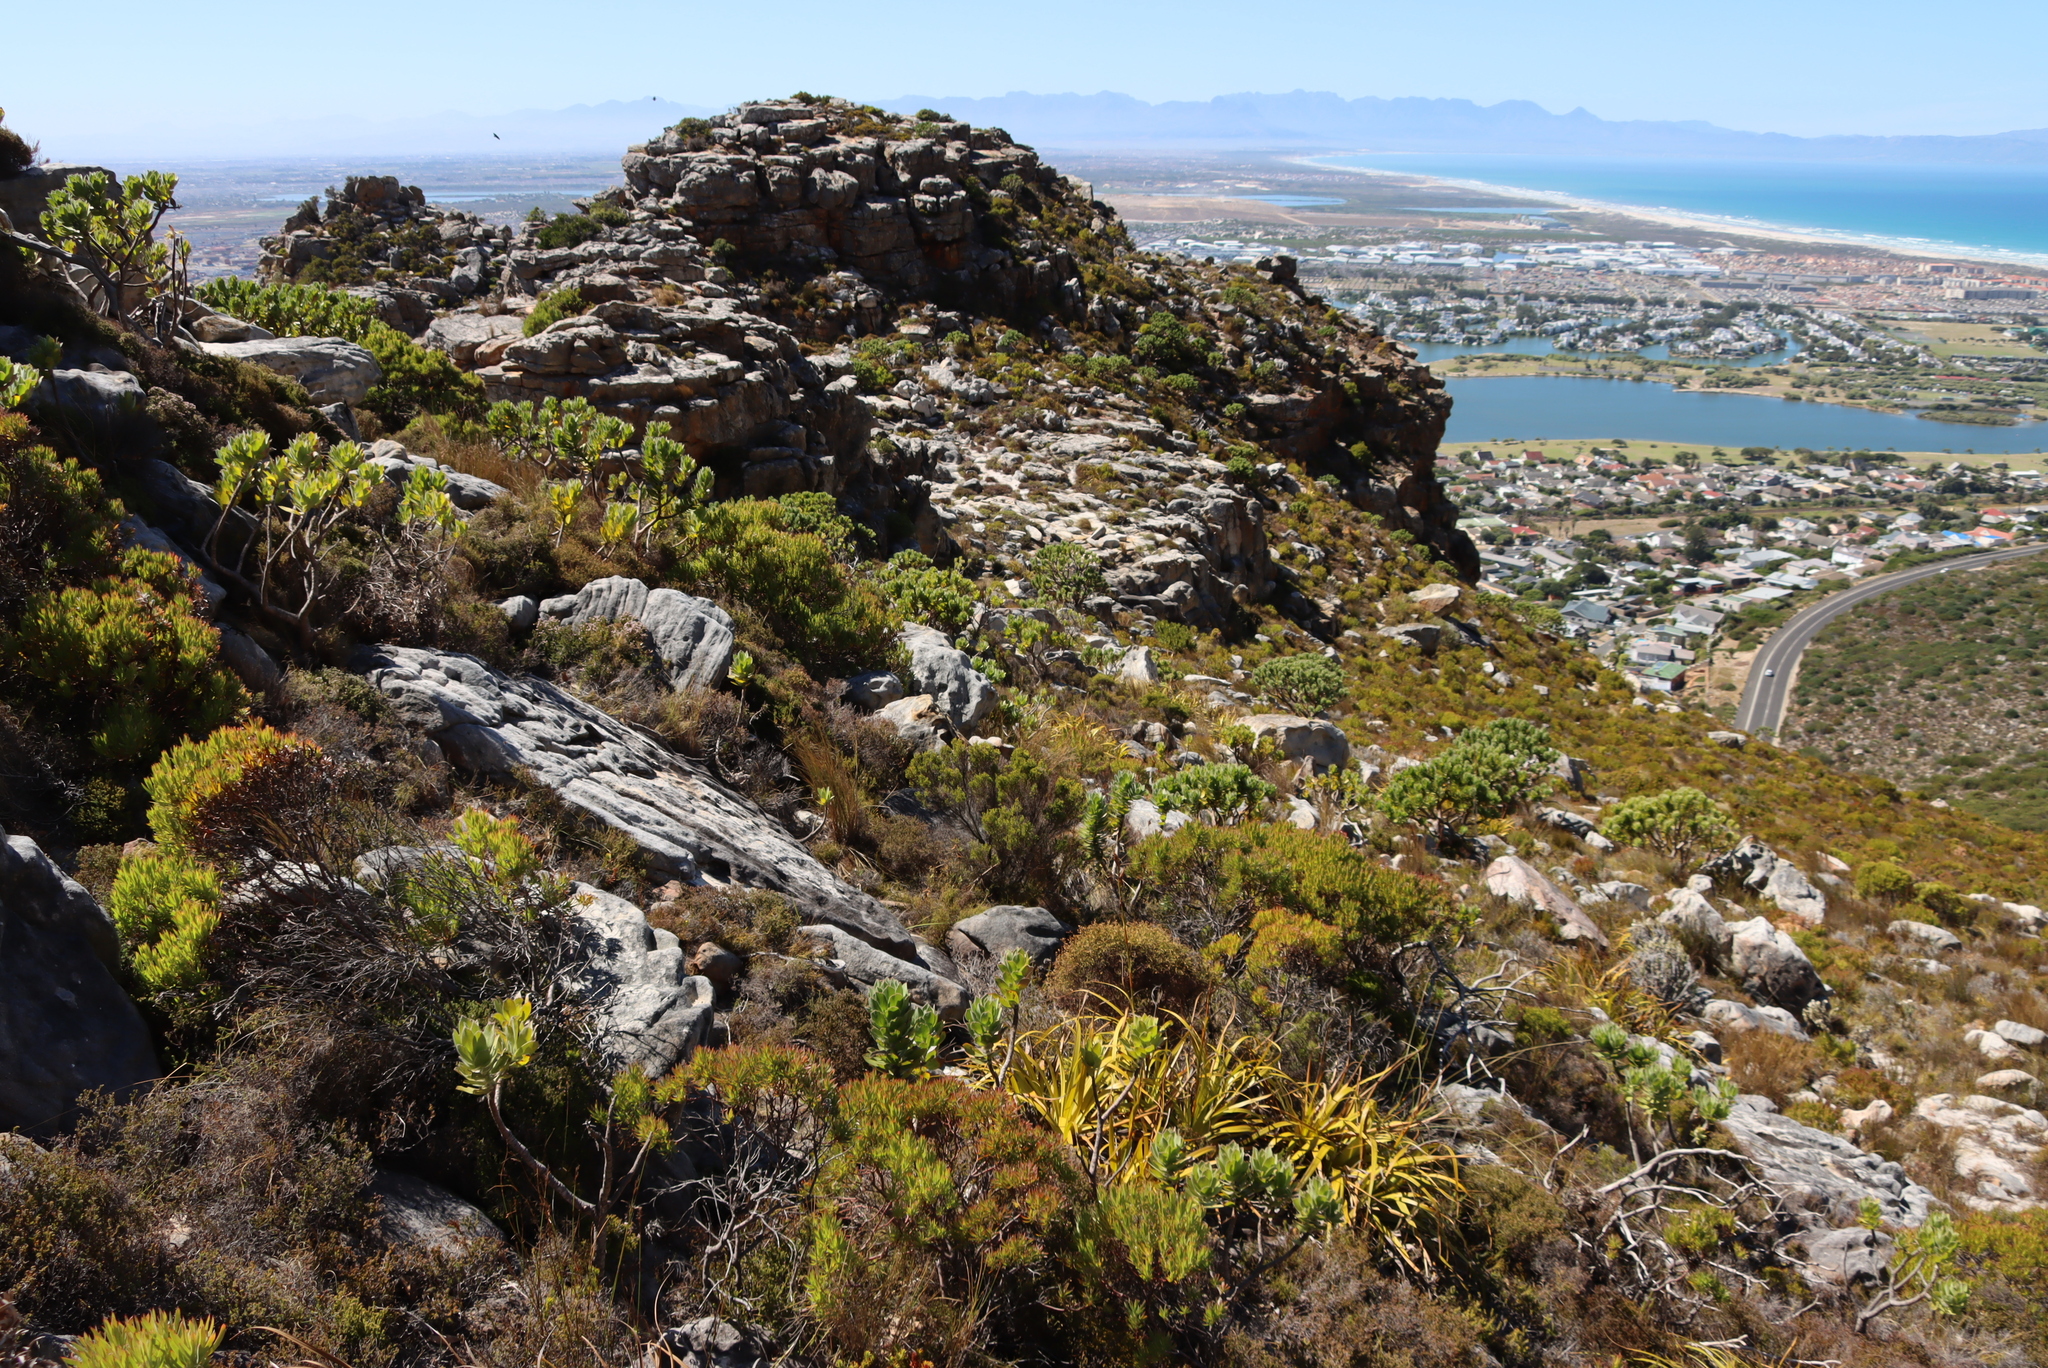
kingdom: Plantae
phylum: Tracheophyta
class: Magnoliopsida
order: Proteales
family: Proteaceae
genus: Leucospermum
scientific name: Leucospermum conocarpodendron
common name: Tree pincushion
